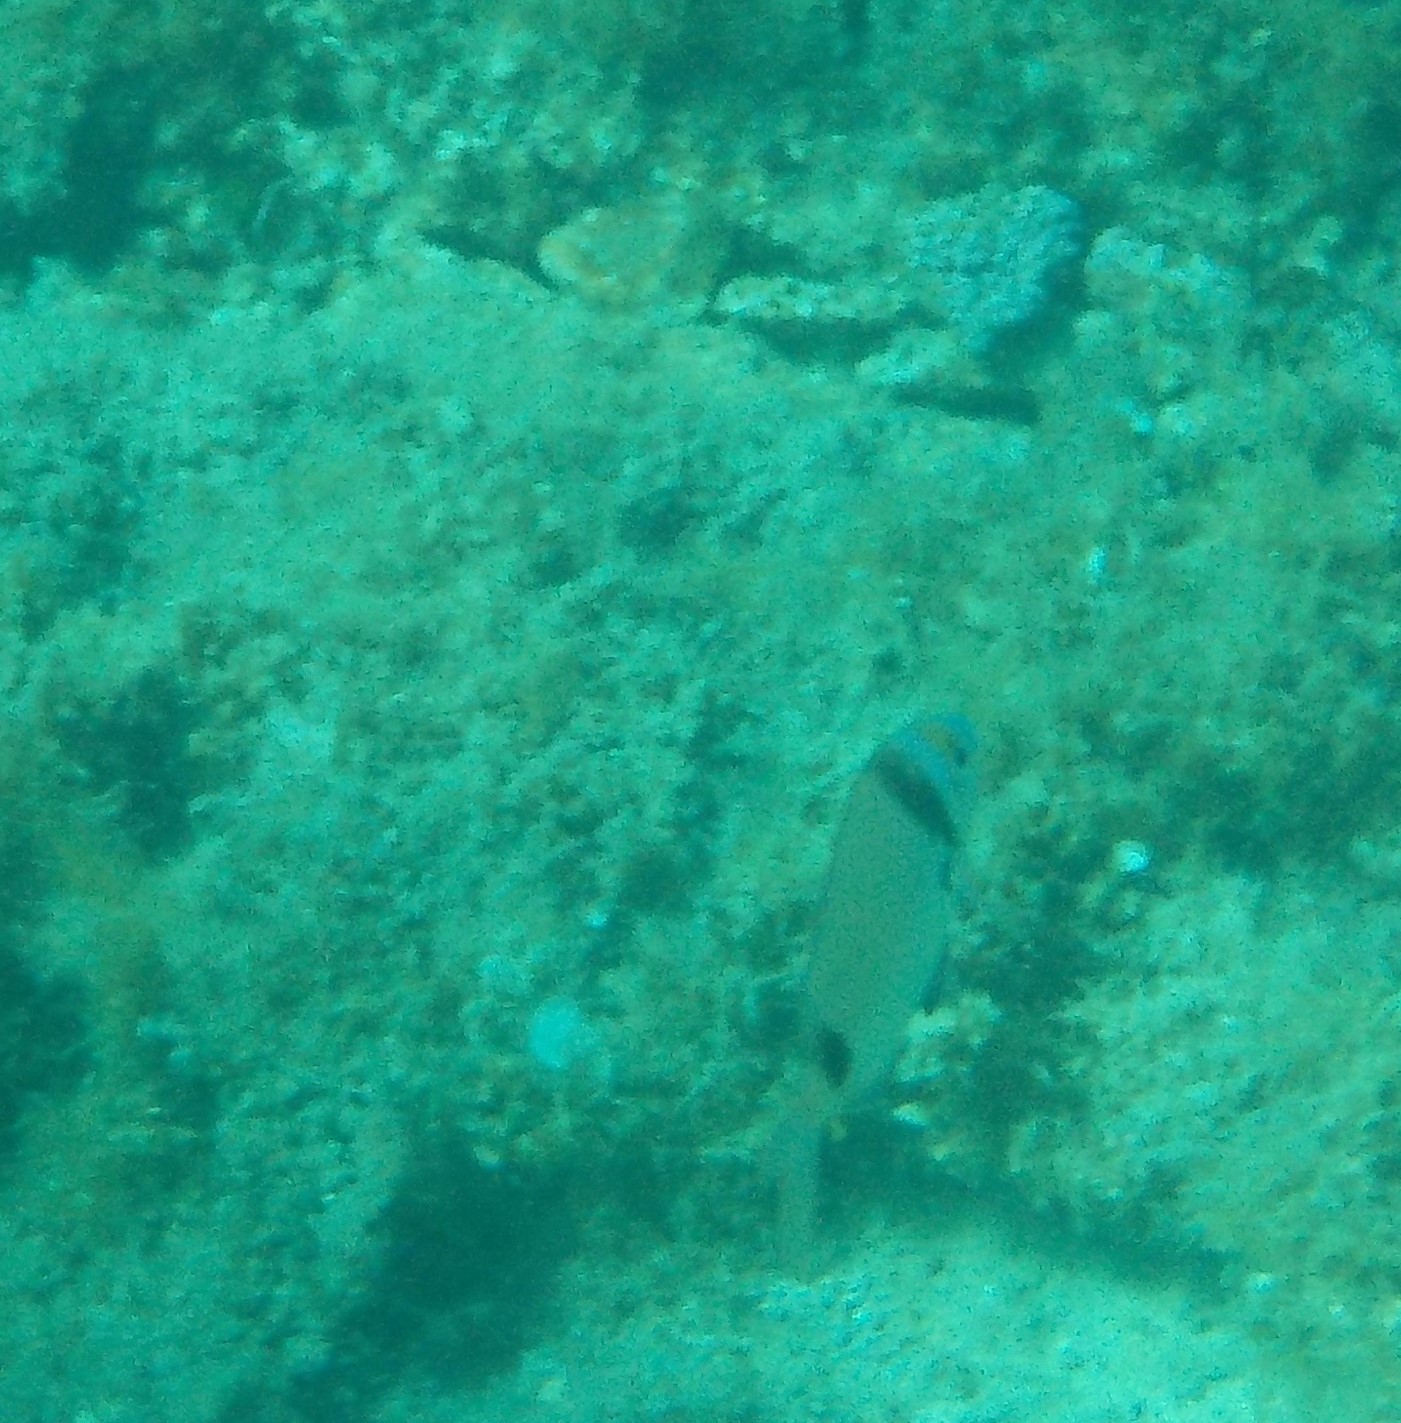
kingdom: Animalia
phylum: Chordata
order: Perciformes
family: Sparidae
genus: Diplodus
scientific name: Diplodus vulgaris
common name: Common two-banded seabream
